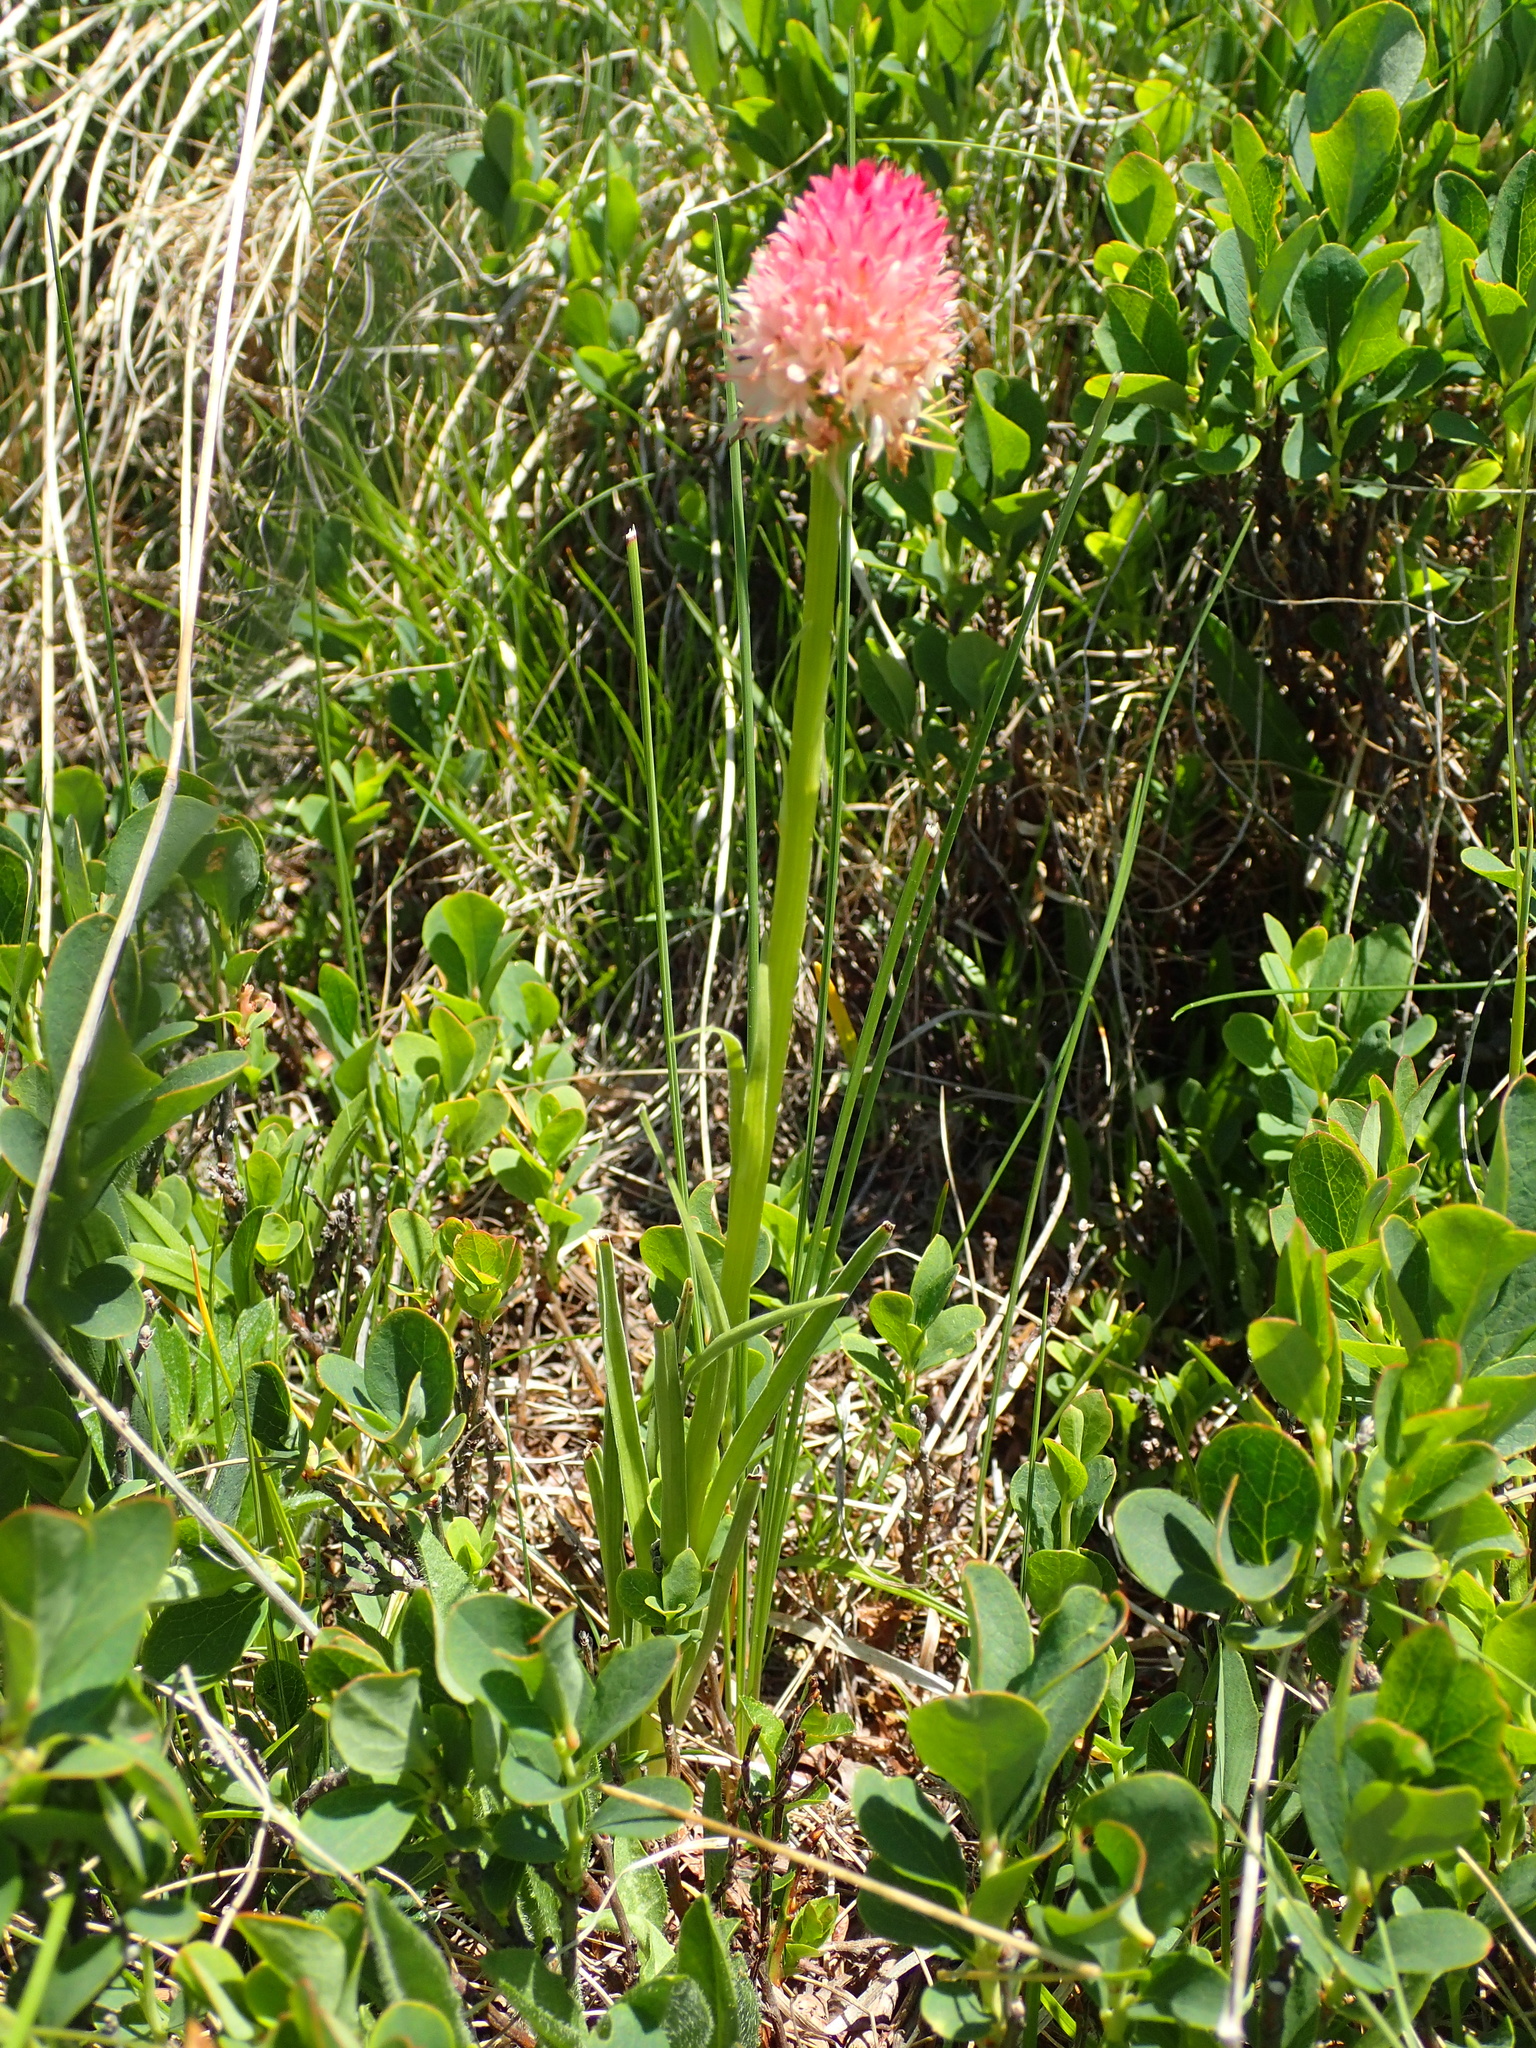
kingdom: Plantae
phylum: Tracheophyta
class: Liliopsida
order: Asparagales
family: Orchidaceae
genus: Platanthera
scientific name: Platanthera bifolia
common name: Lesser butterfly-orchid
